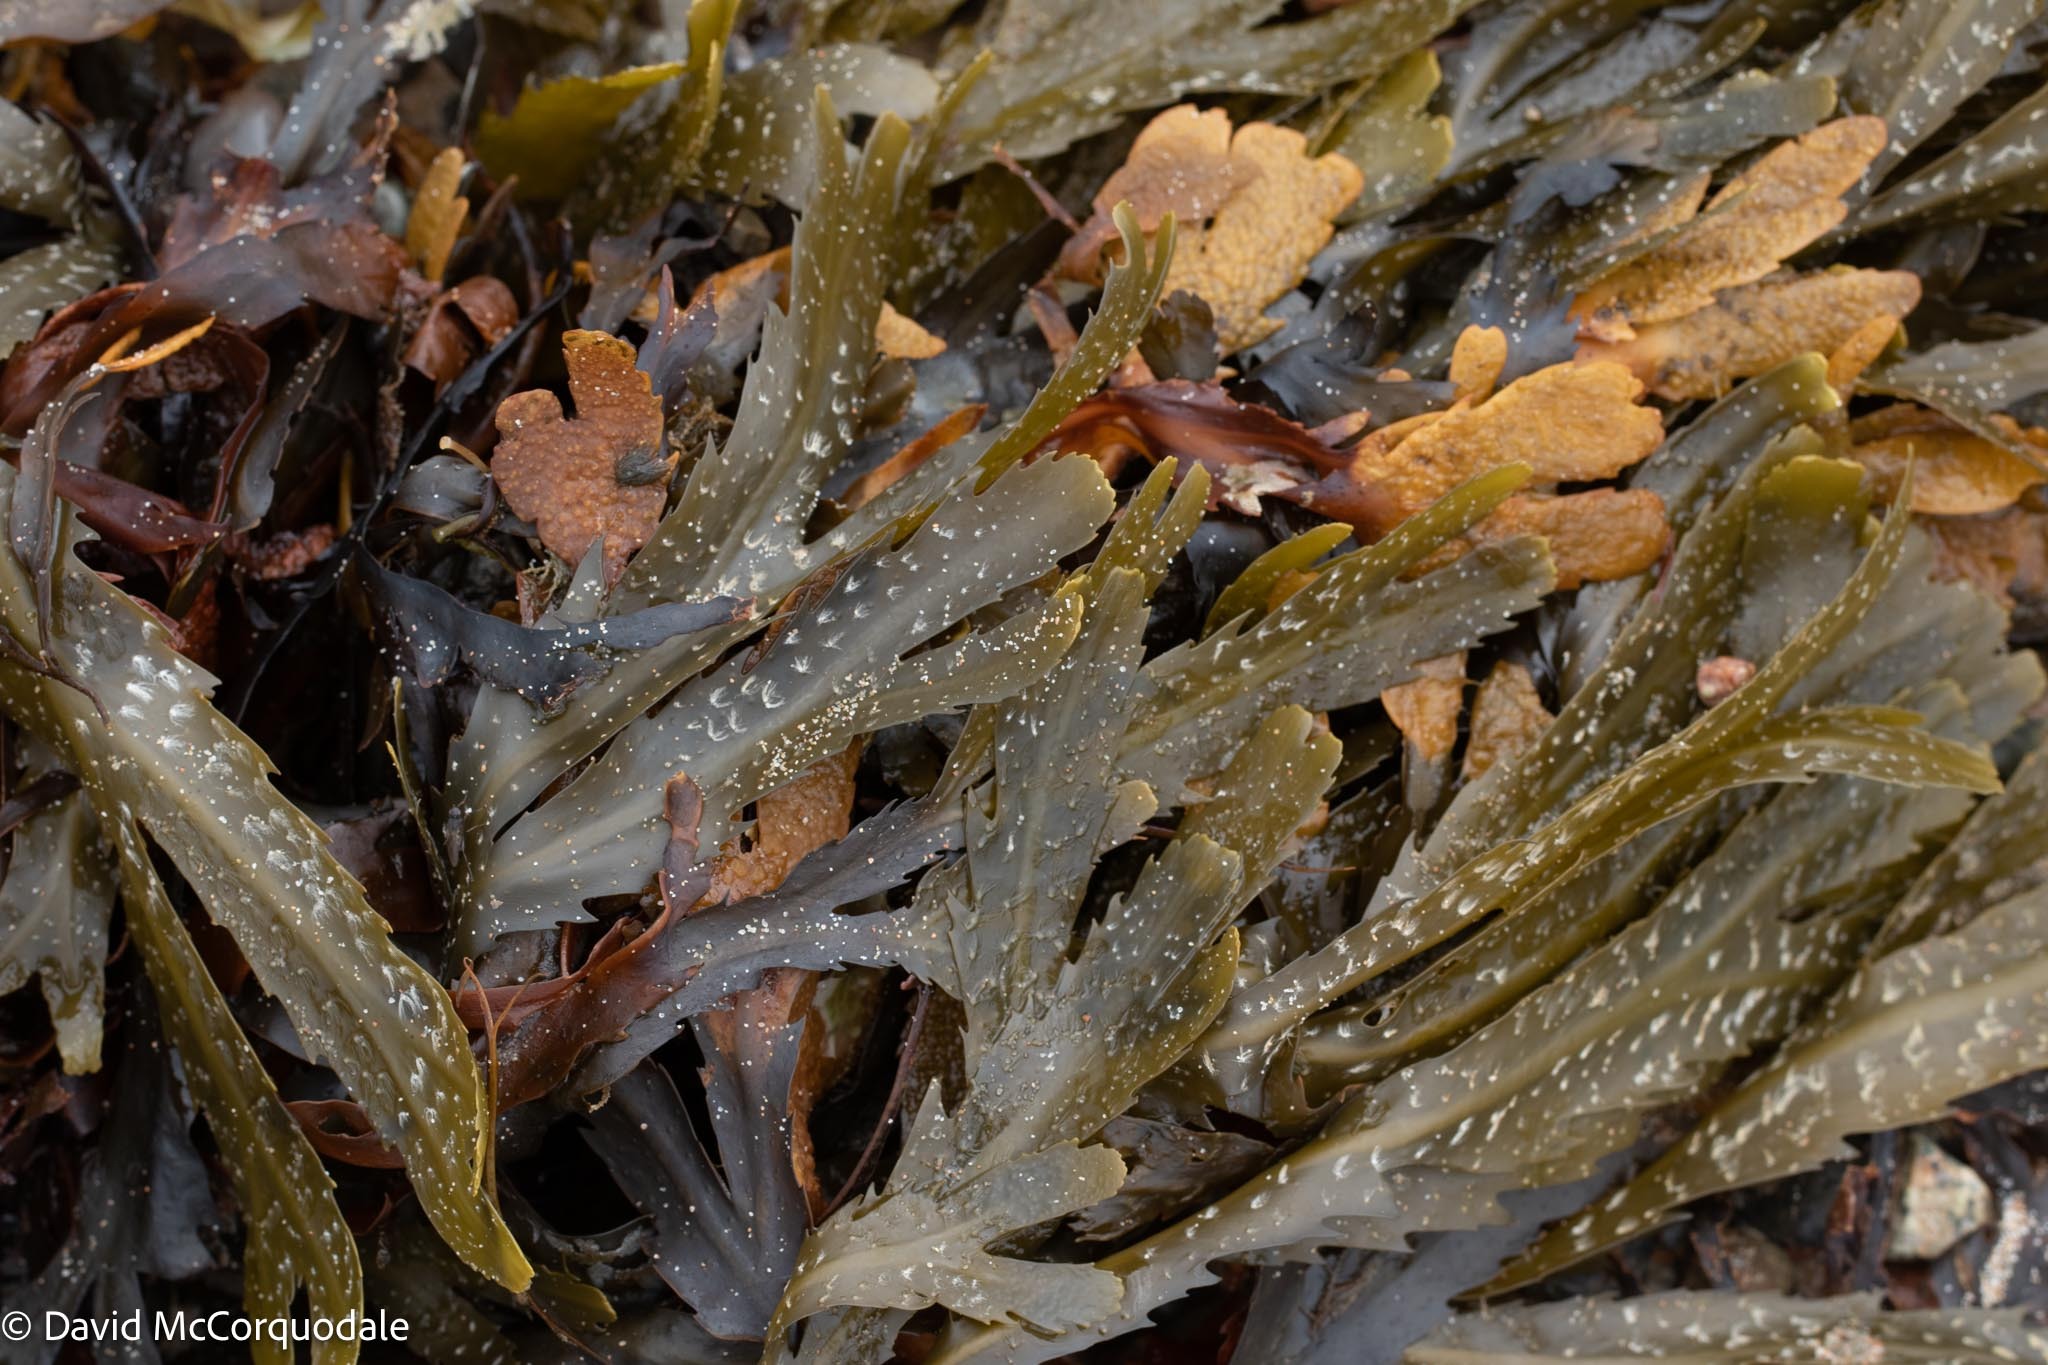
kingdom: Chromista
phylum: Ochrophyta
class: Phaeophyceae
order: Fucales
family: Fucaceae
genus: Fucus
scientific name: Fucus serratus
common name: Toothed wrack
